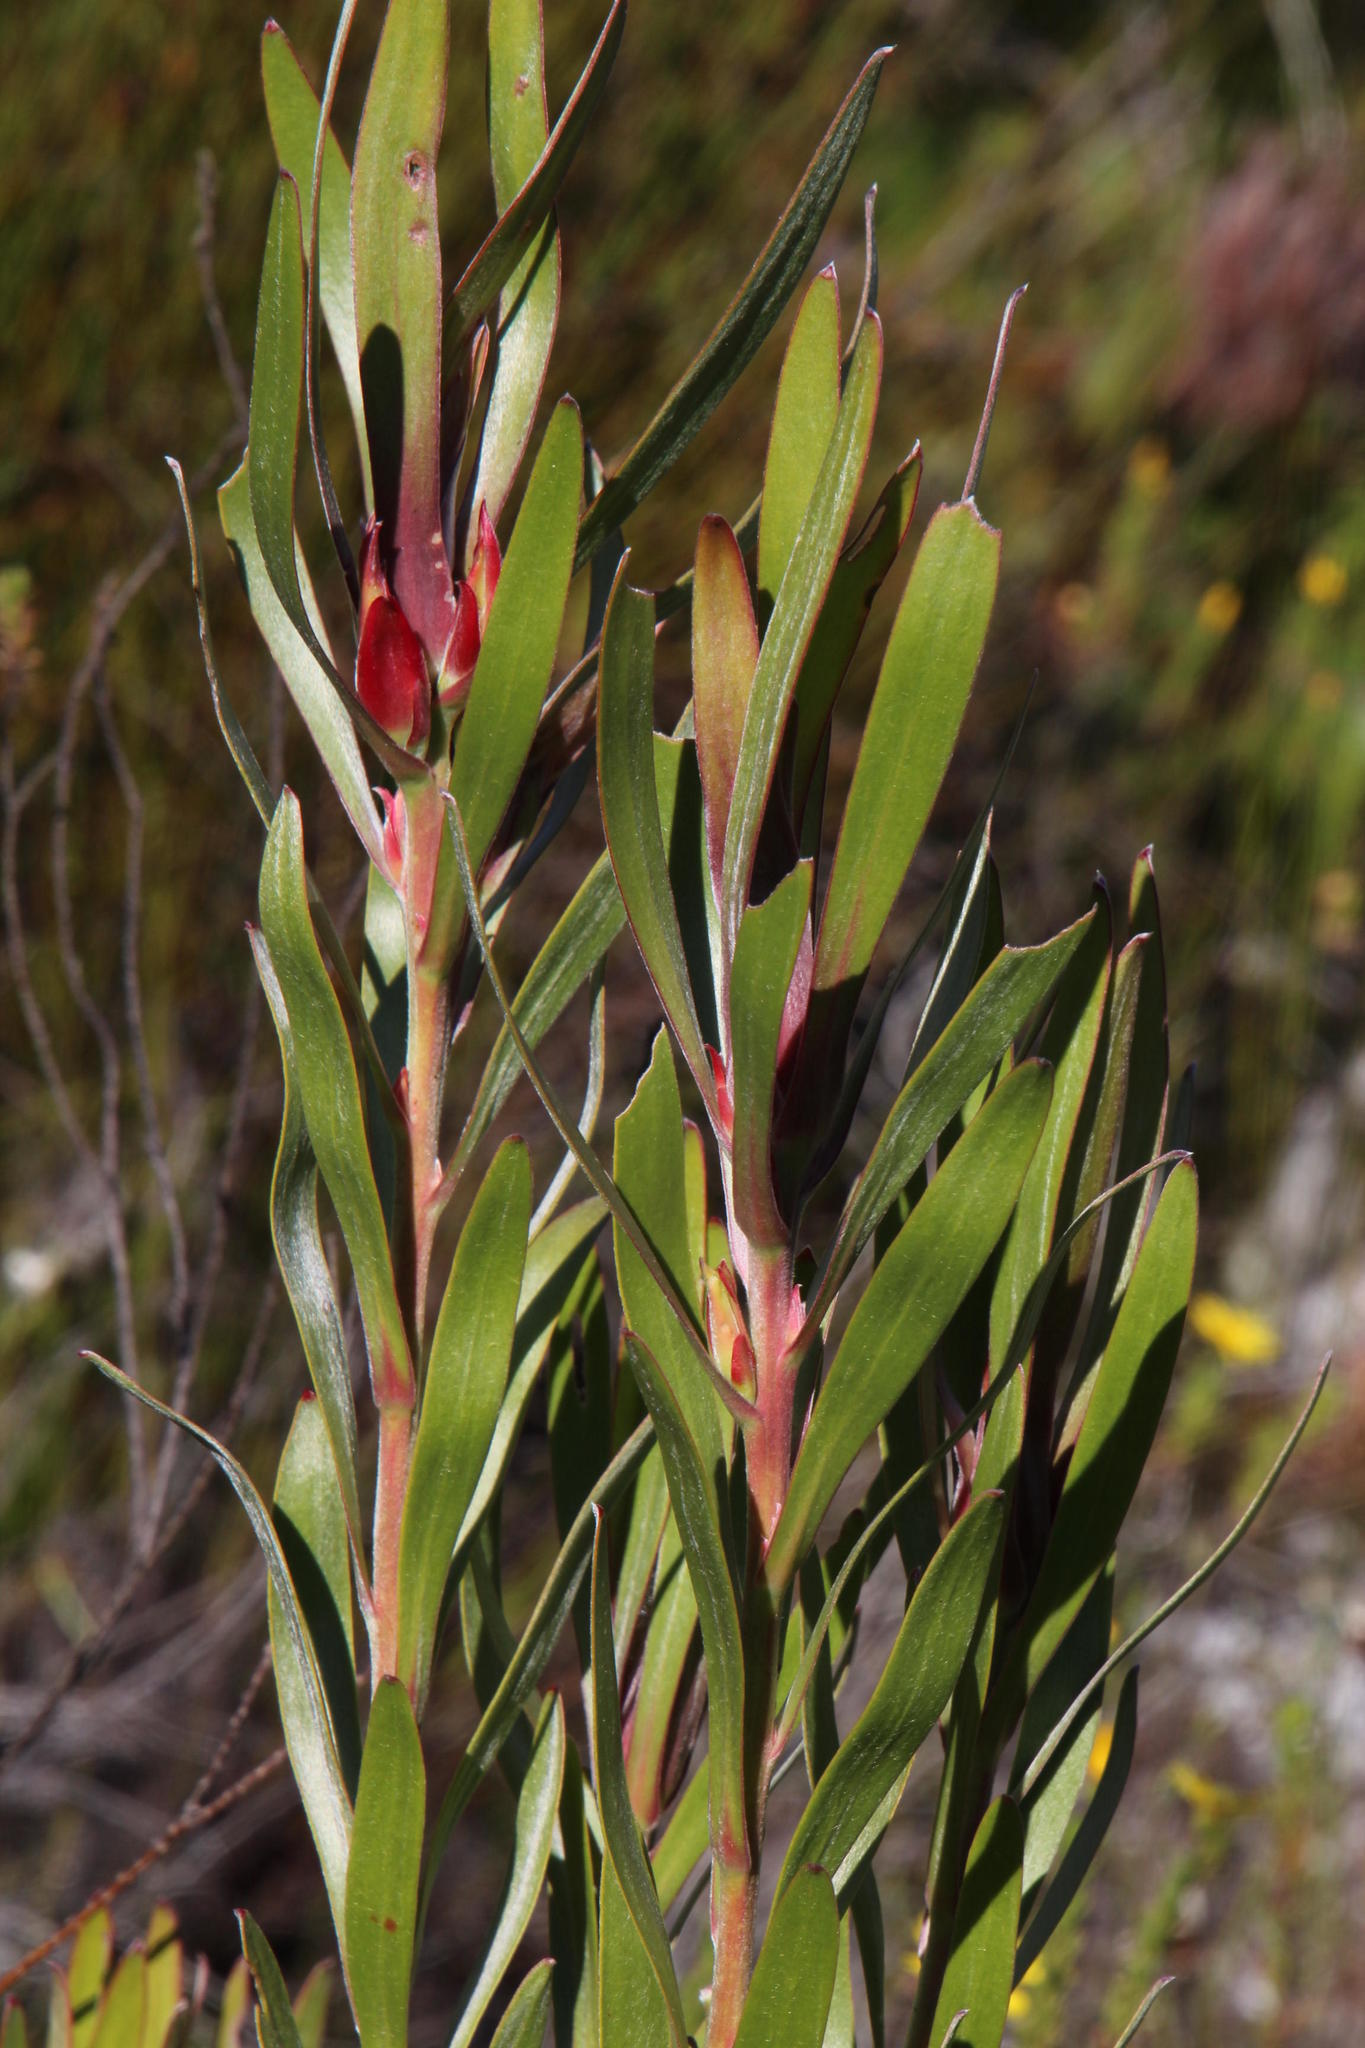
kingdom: Plantae
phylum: Tracheophyta
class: Magnoliopsida
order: Proteales
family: Proteaceae
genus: Leucadendron
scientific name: Leucadendron eucalyptifolium
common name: Gum-leaved conebush
